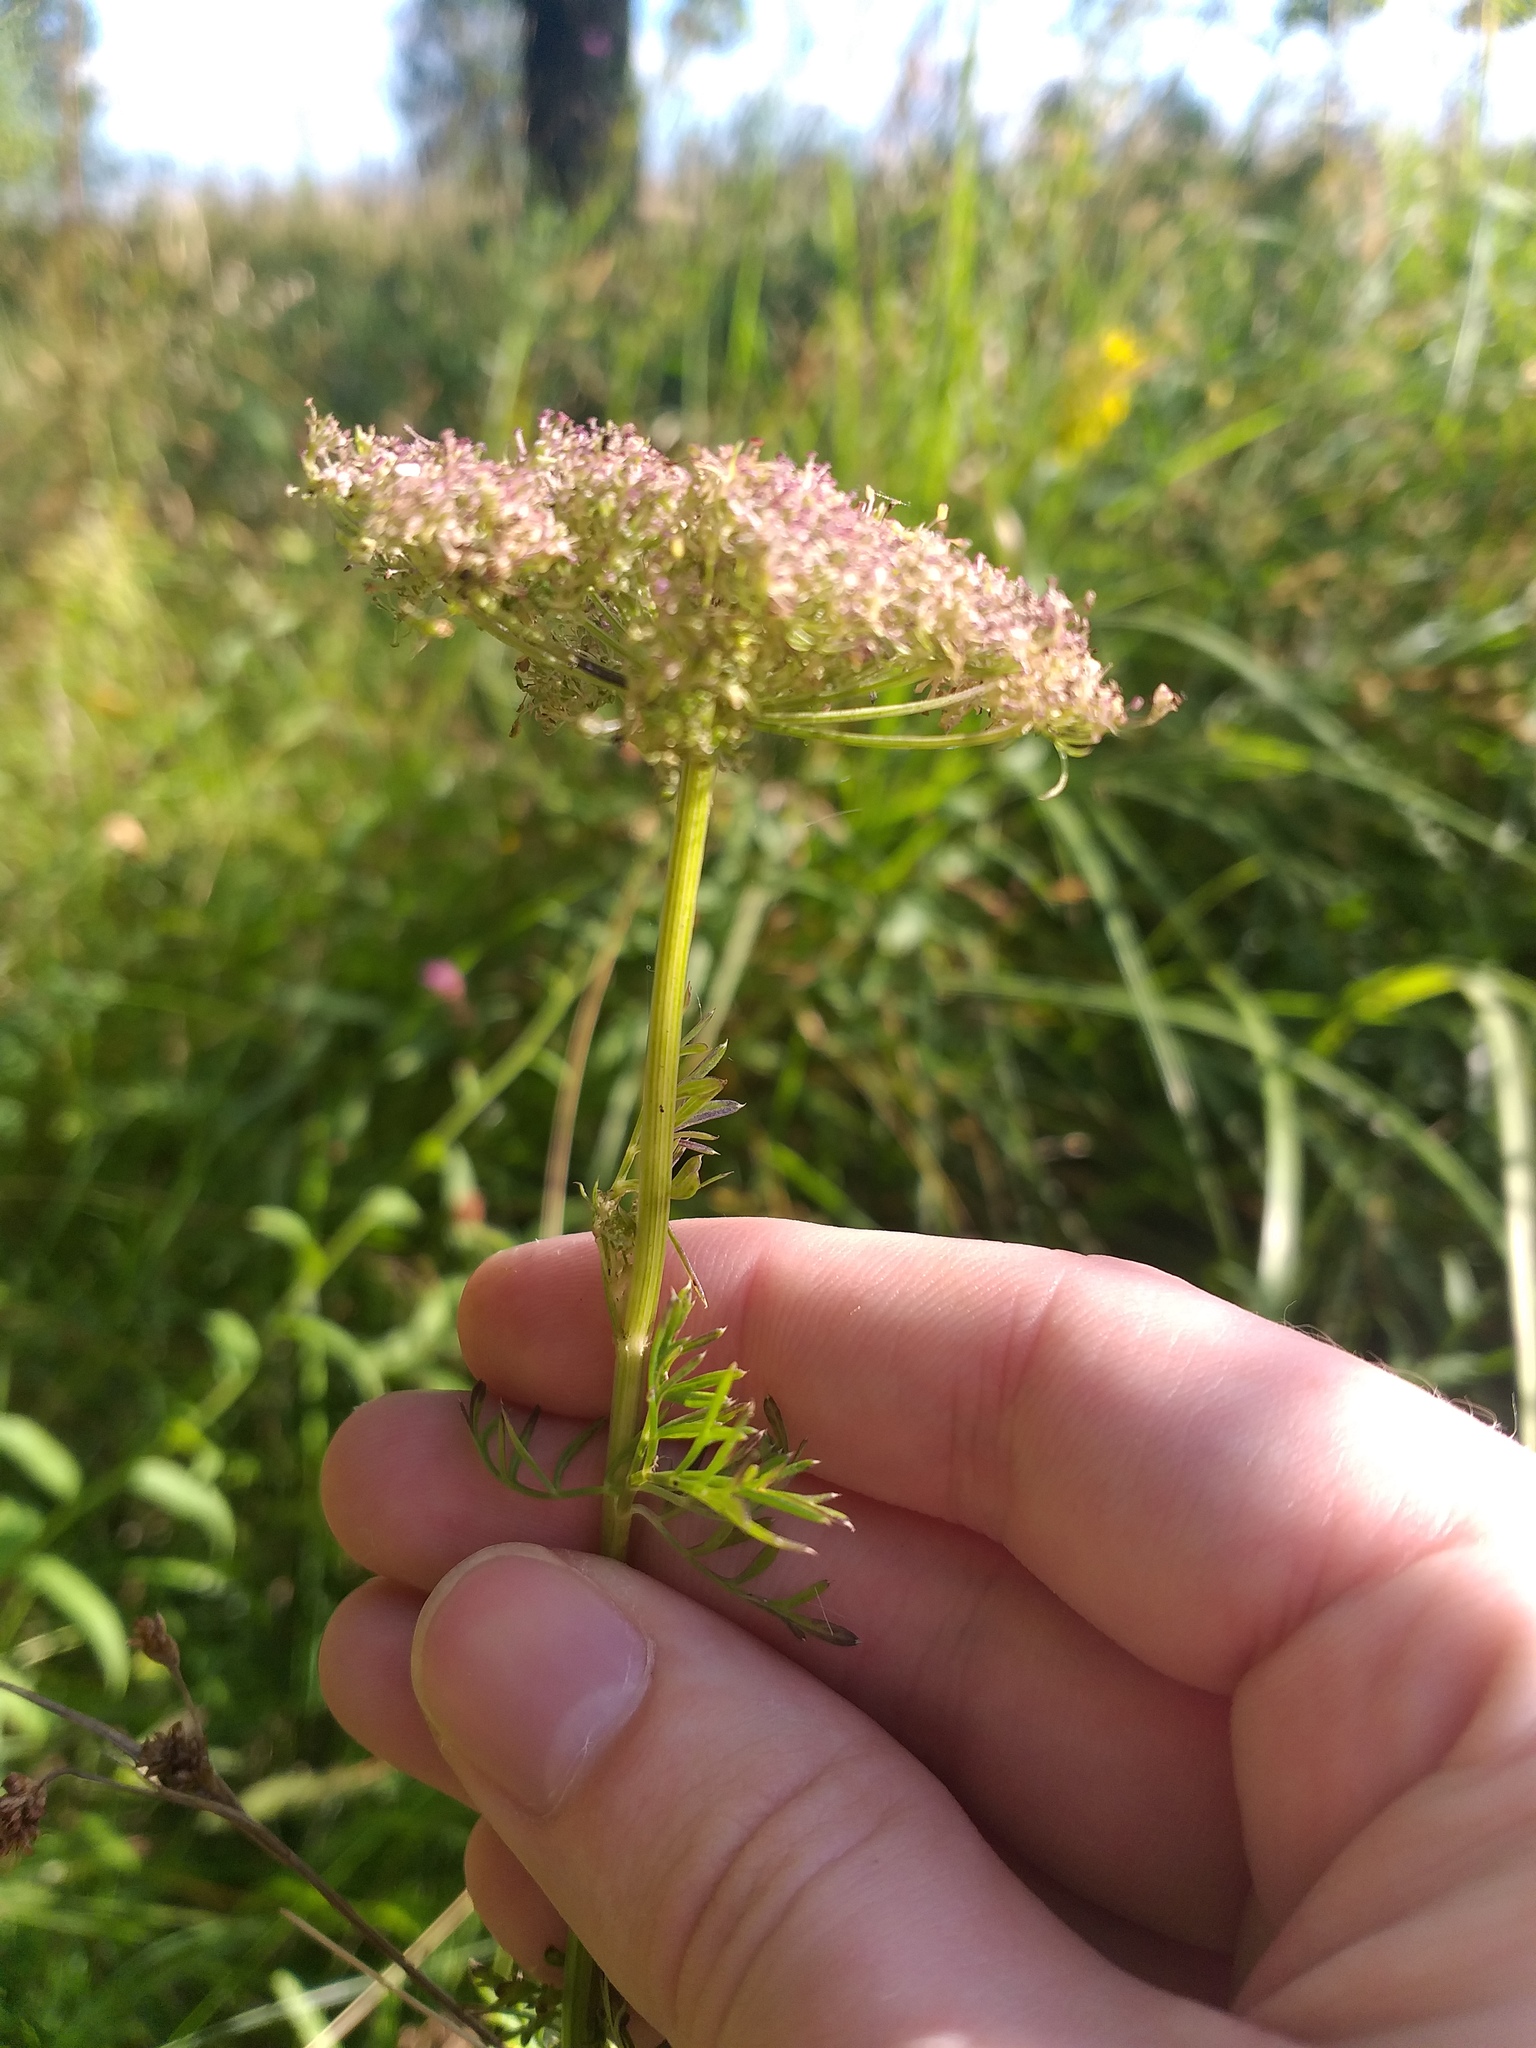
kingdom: Plantae
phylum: Tracheophyta
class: Magnoliopsida
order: Apiales
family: Apiaceae
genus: Selinum
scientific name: Selinum carvifolia
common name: Cambridge milk-parsley
